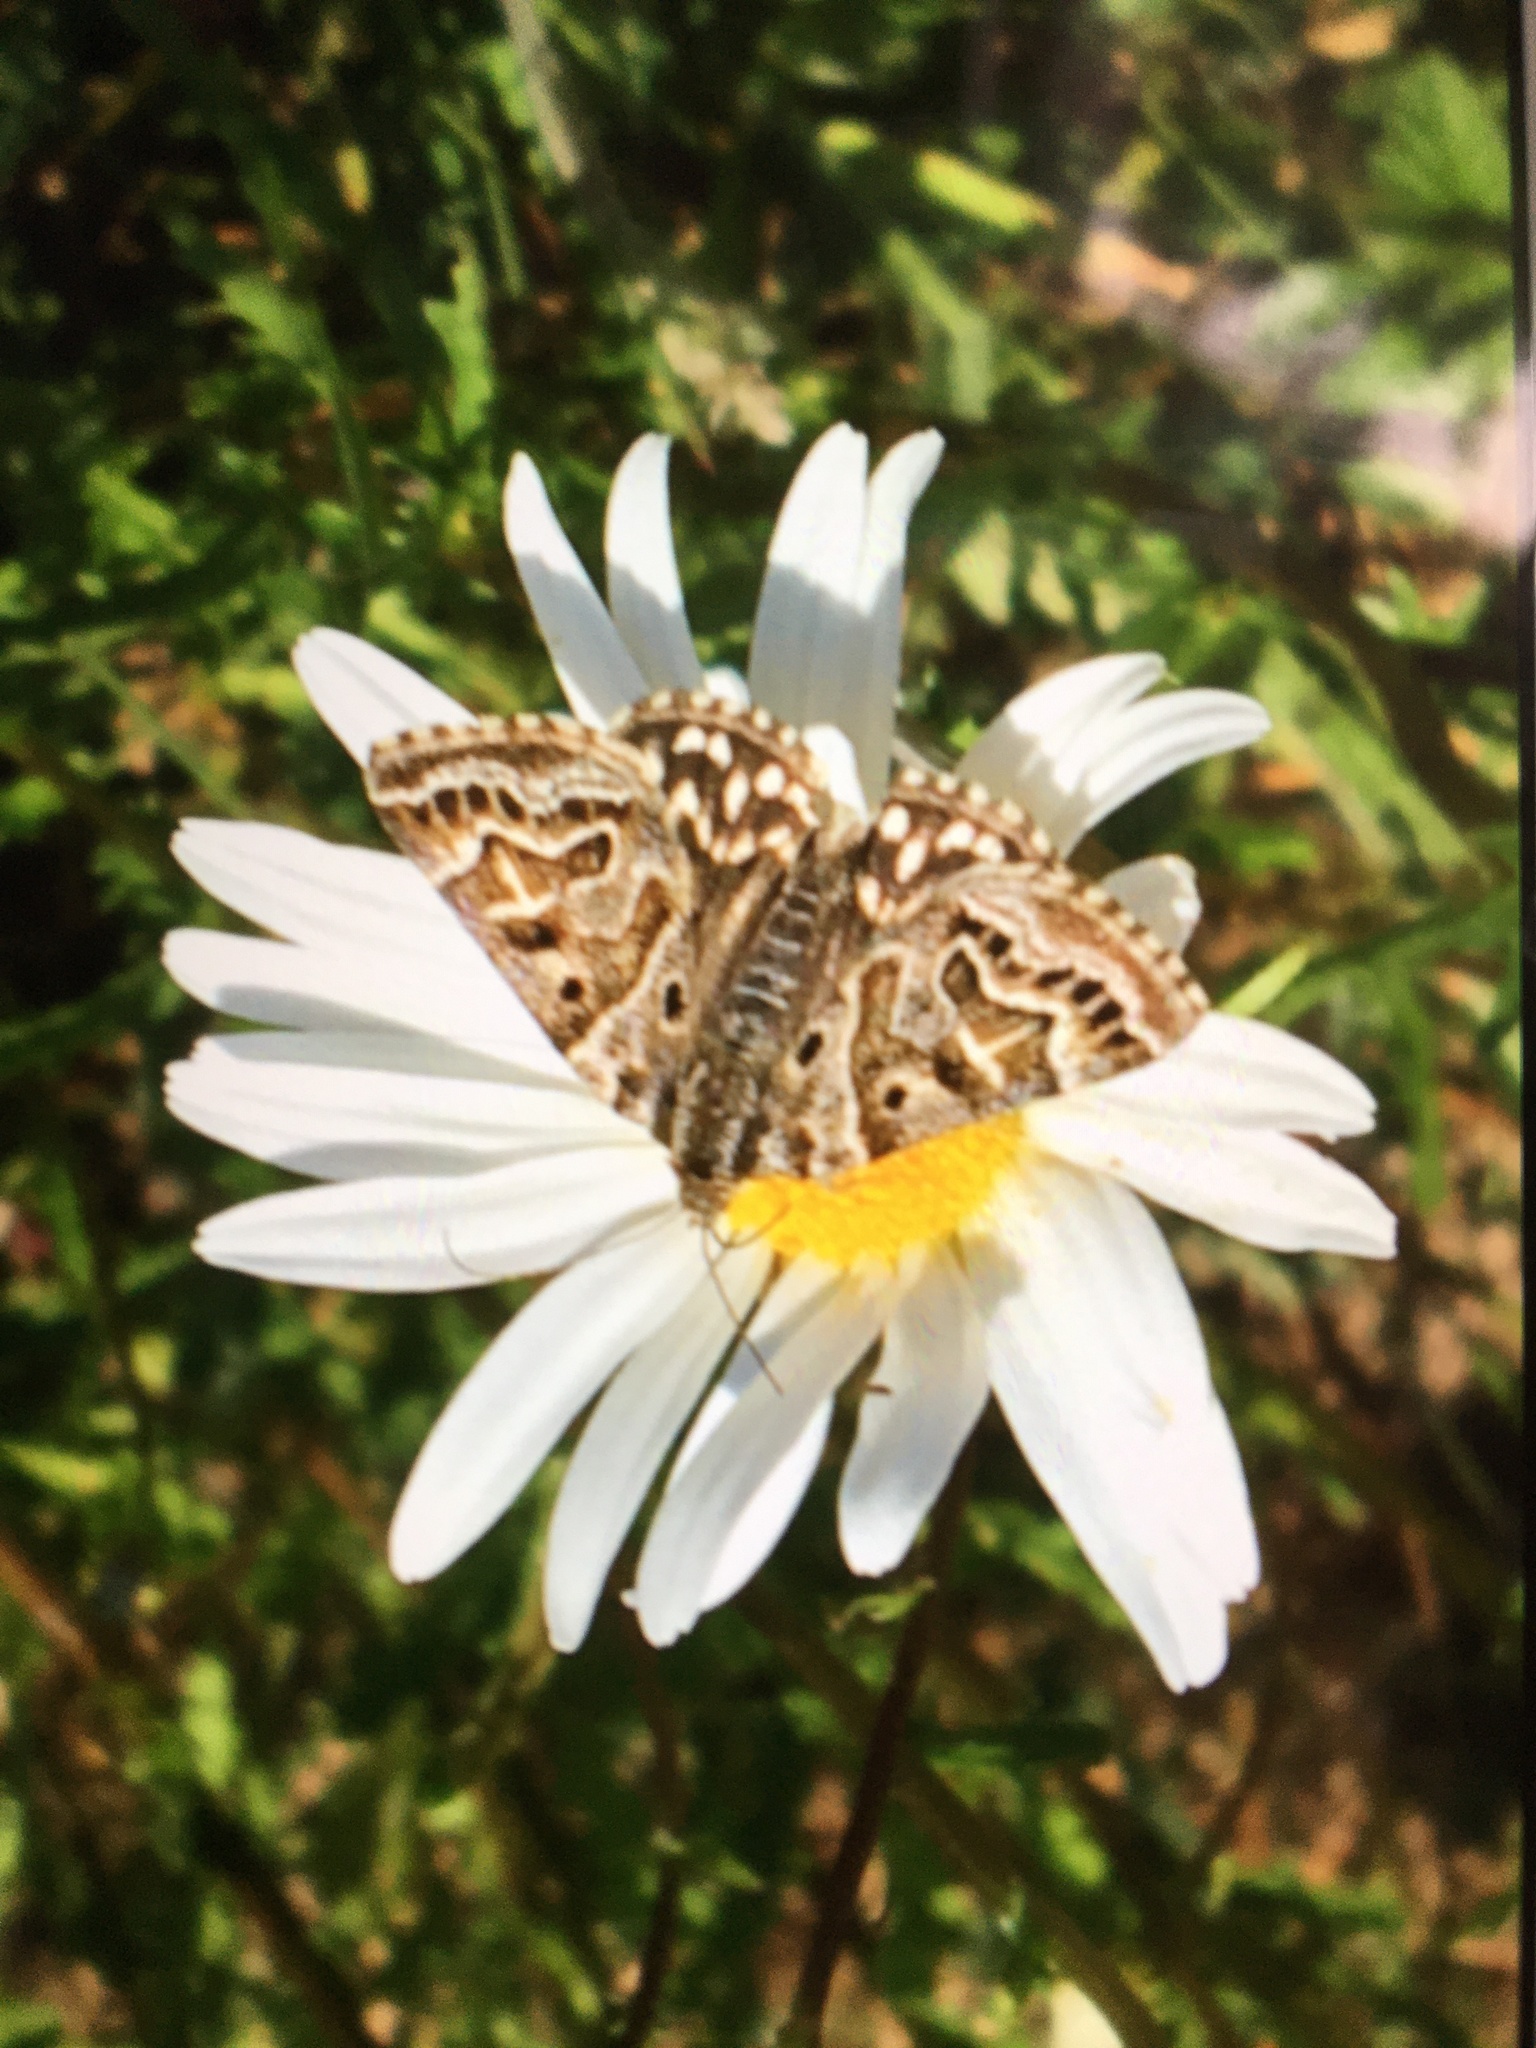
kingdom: Animalia
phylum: Arthropoda
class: Insecta
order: Lepidoptera
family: Erebidae
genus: Callistege
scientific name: Callistege mi
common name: Mother shipton
